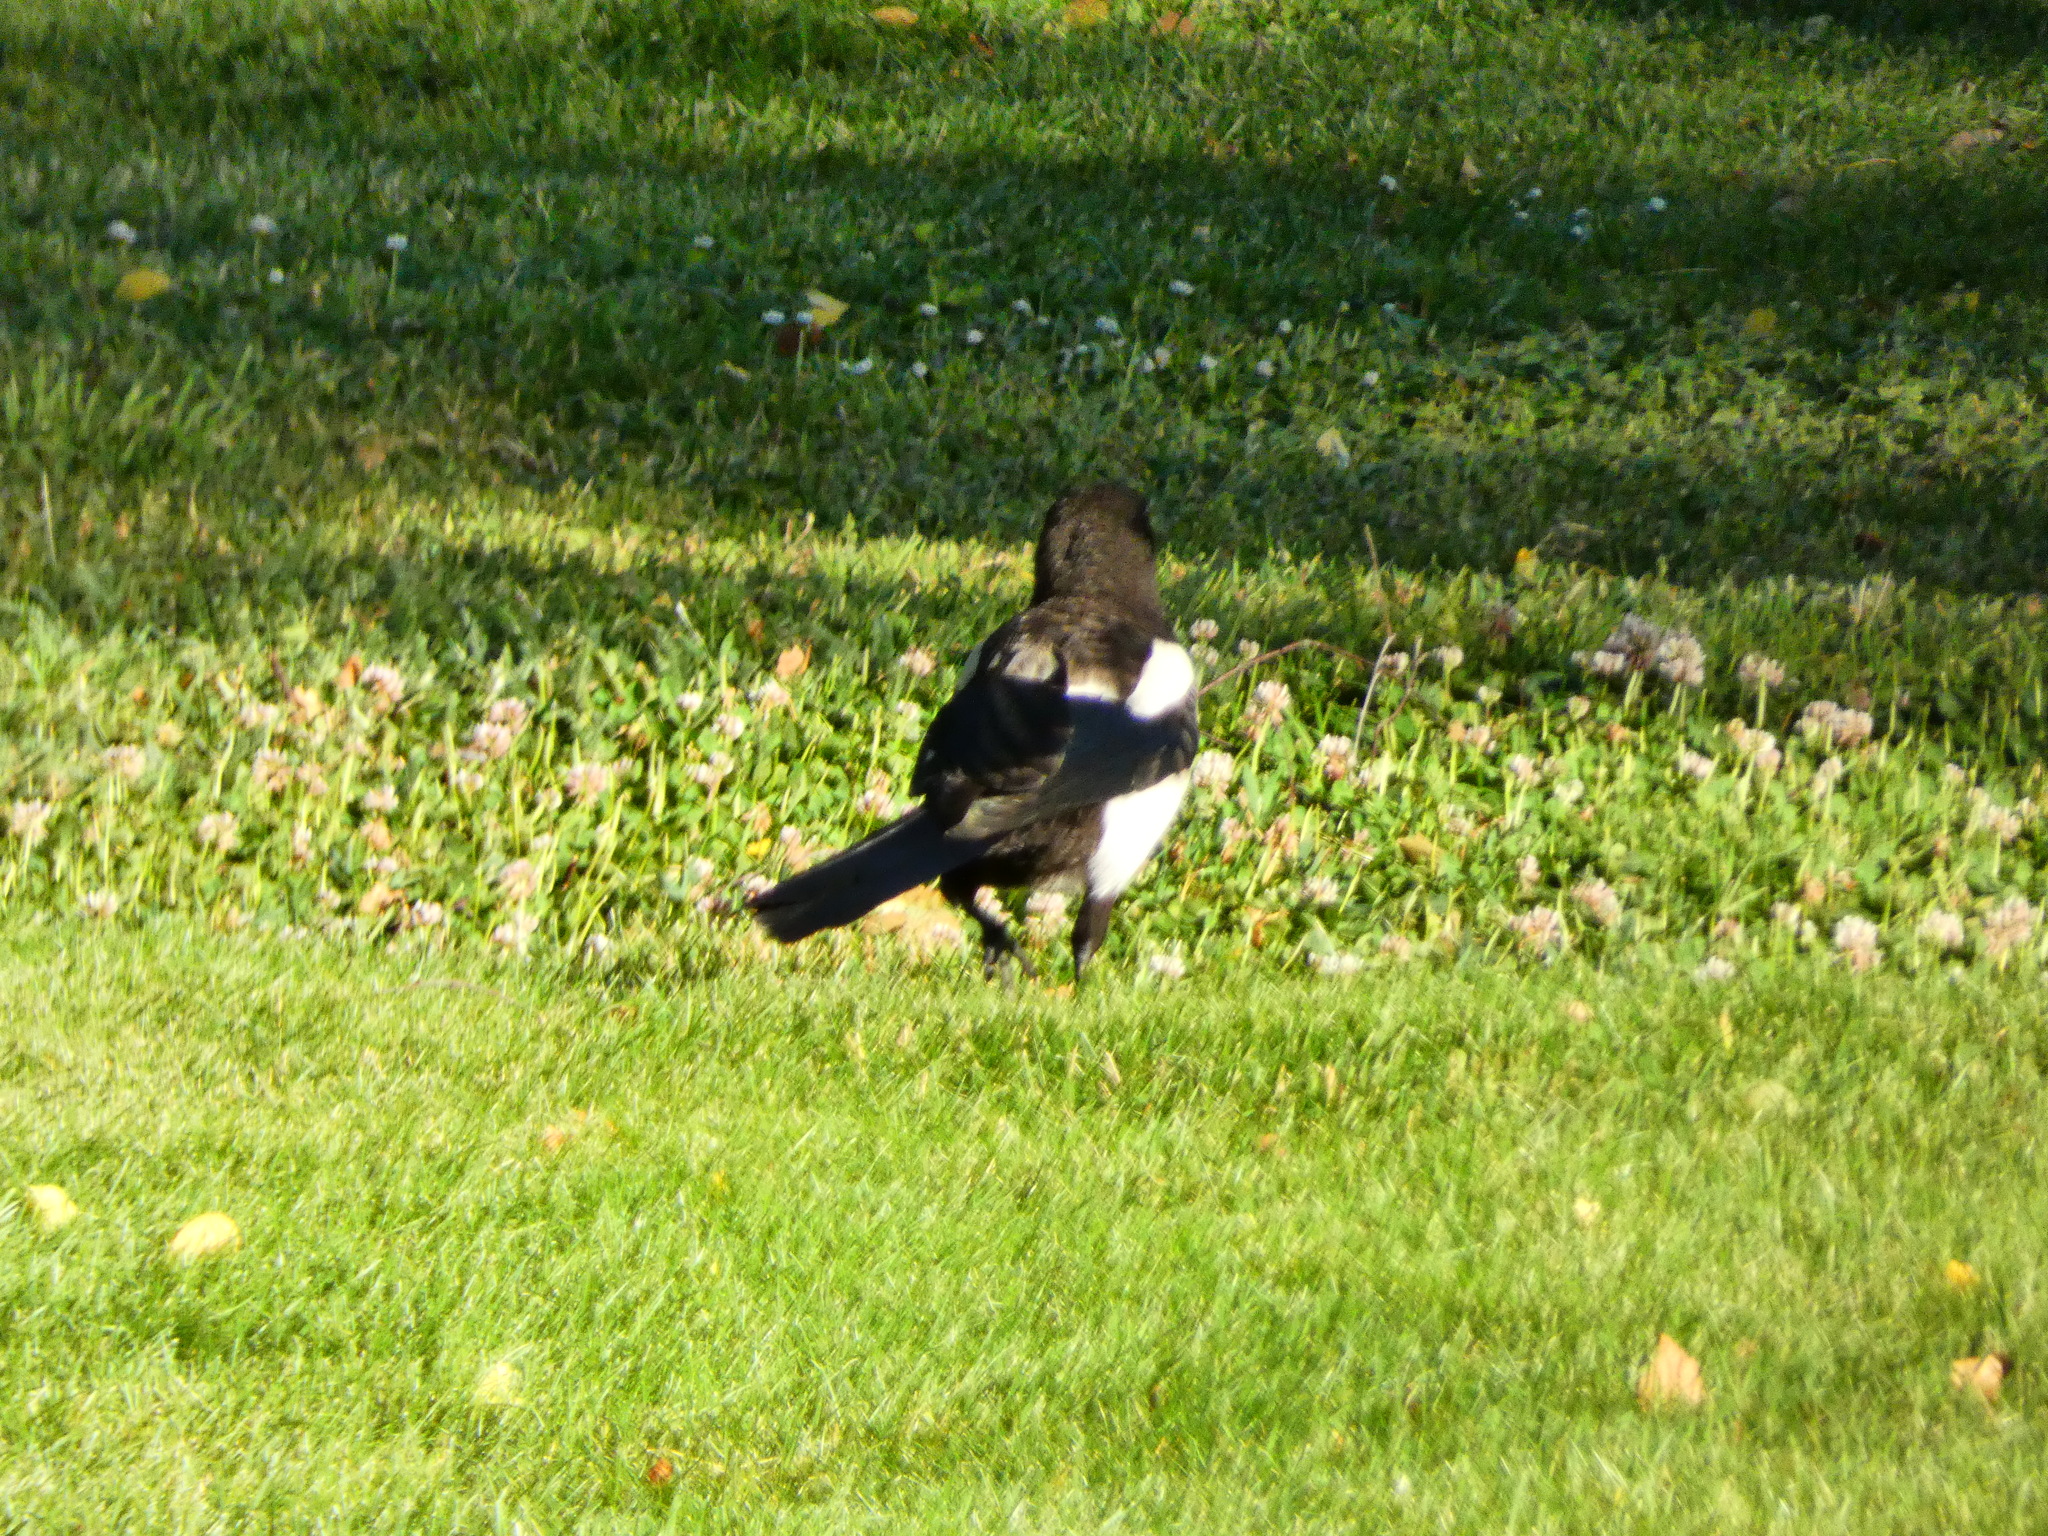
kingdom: Animalia
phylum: Chordata
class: Aves
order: Passeriformes
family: Corvidae
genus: Pica
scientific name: Pica pica
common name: Eurasian magpie
